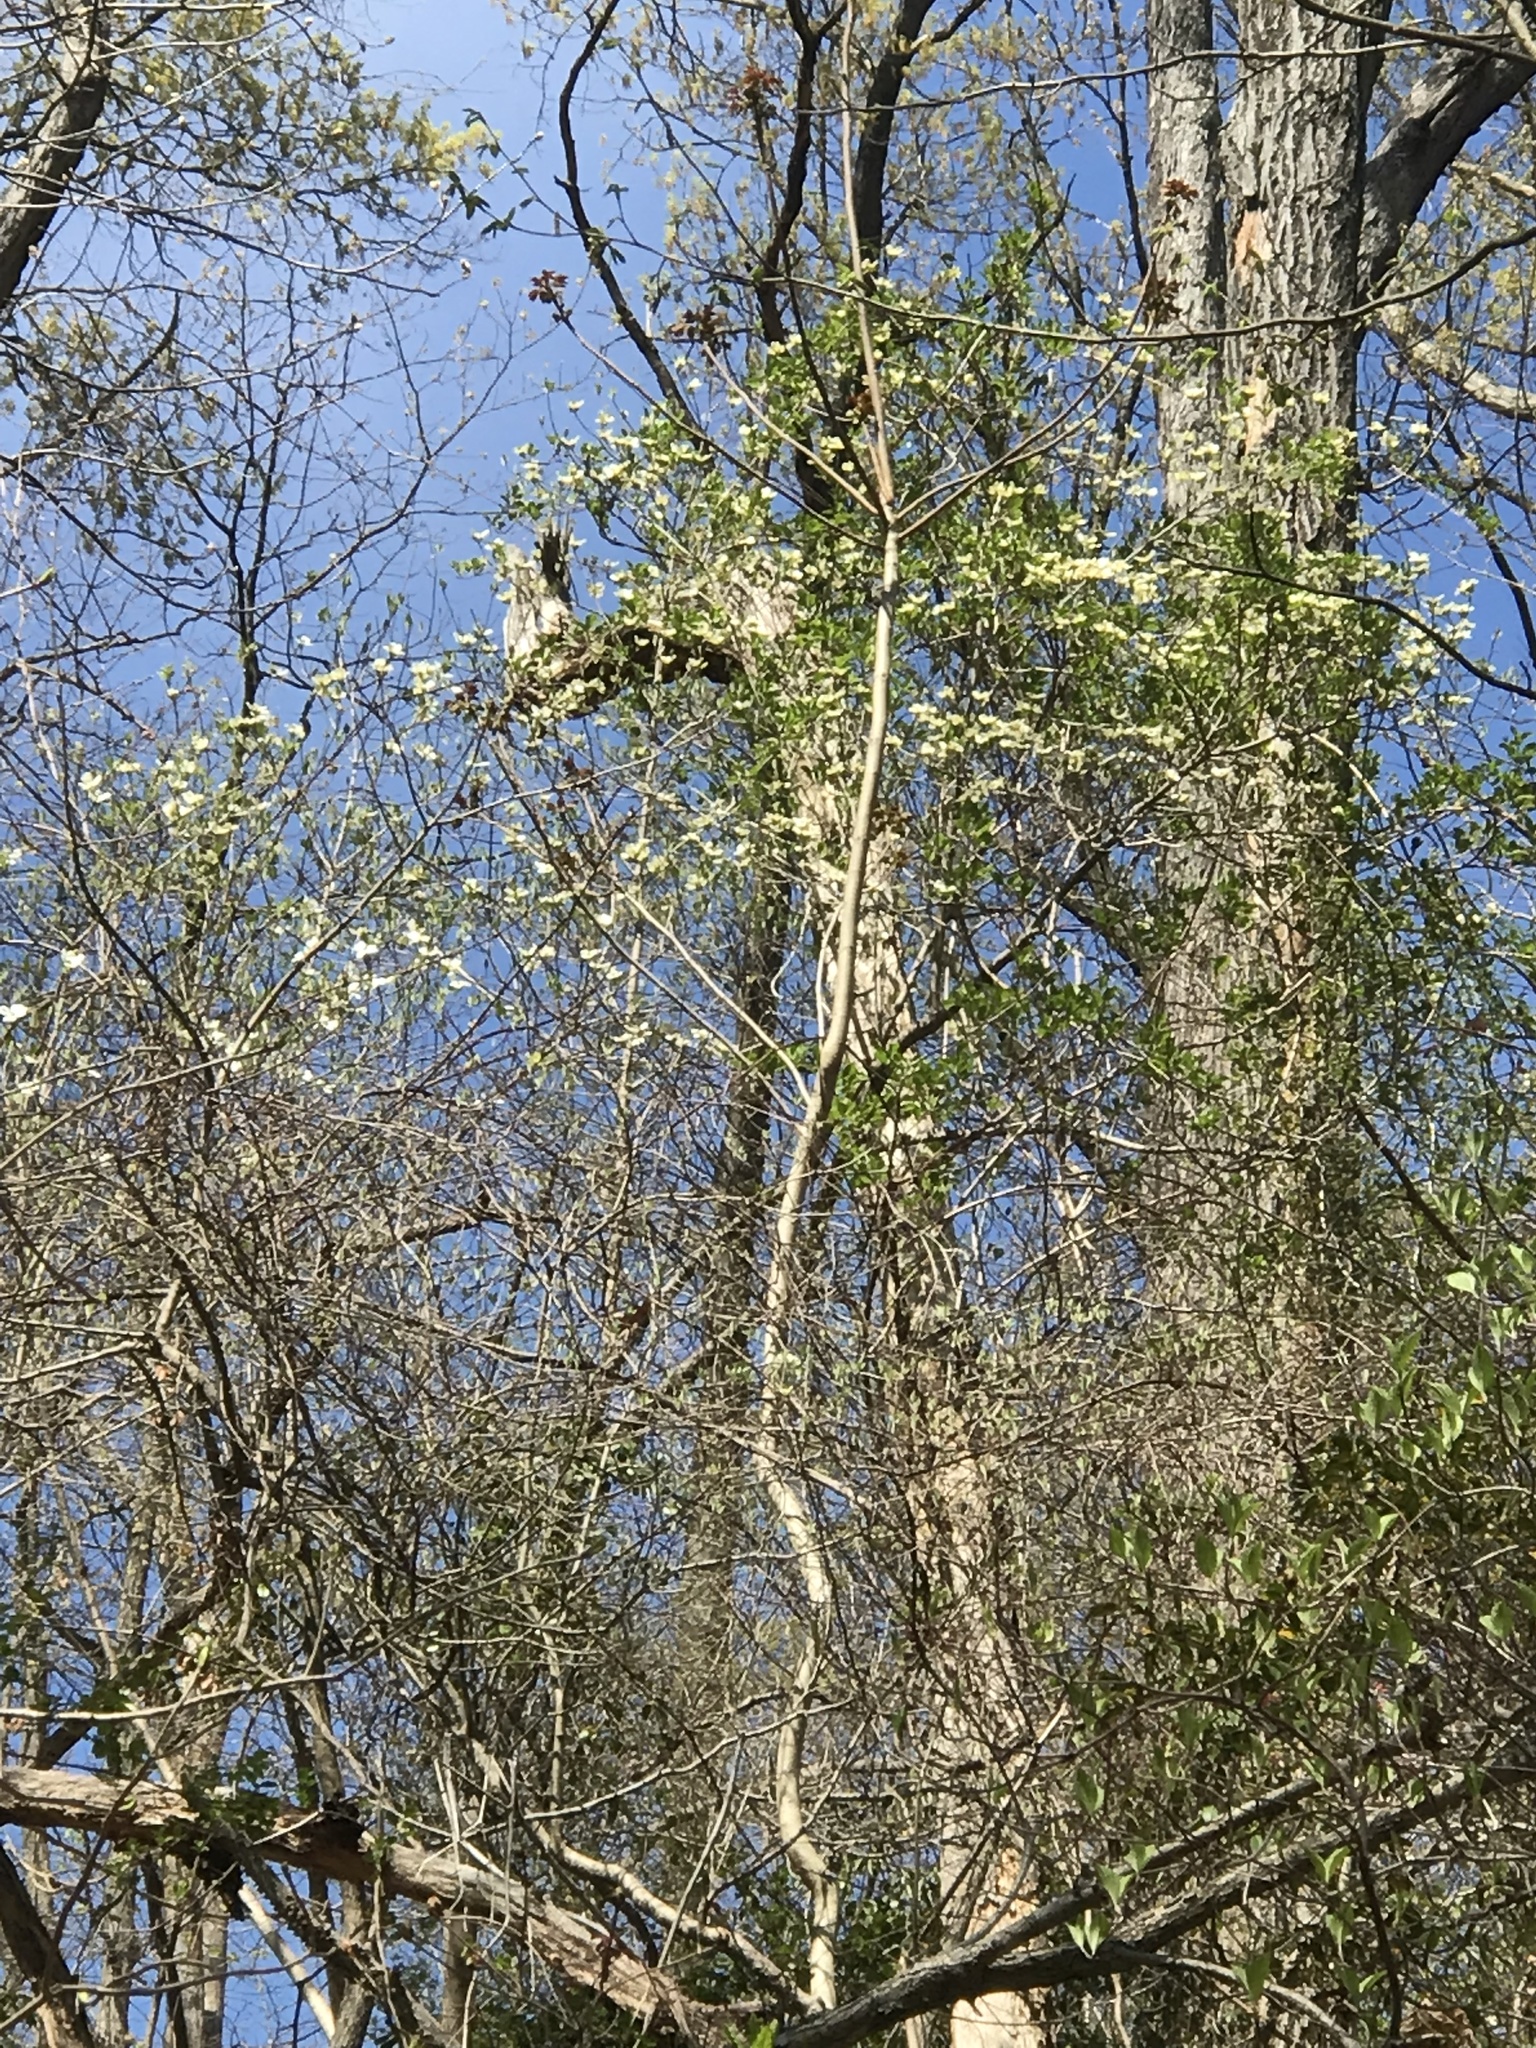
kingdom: Plantae
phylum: Tracheophyta
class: Magnoliopsida
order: Cornales
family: Cornaceae
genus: Cornus
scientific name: Cornus florida
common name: Flowering dogwood
